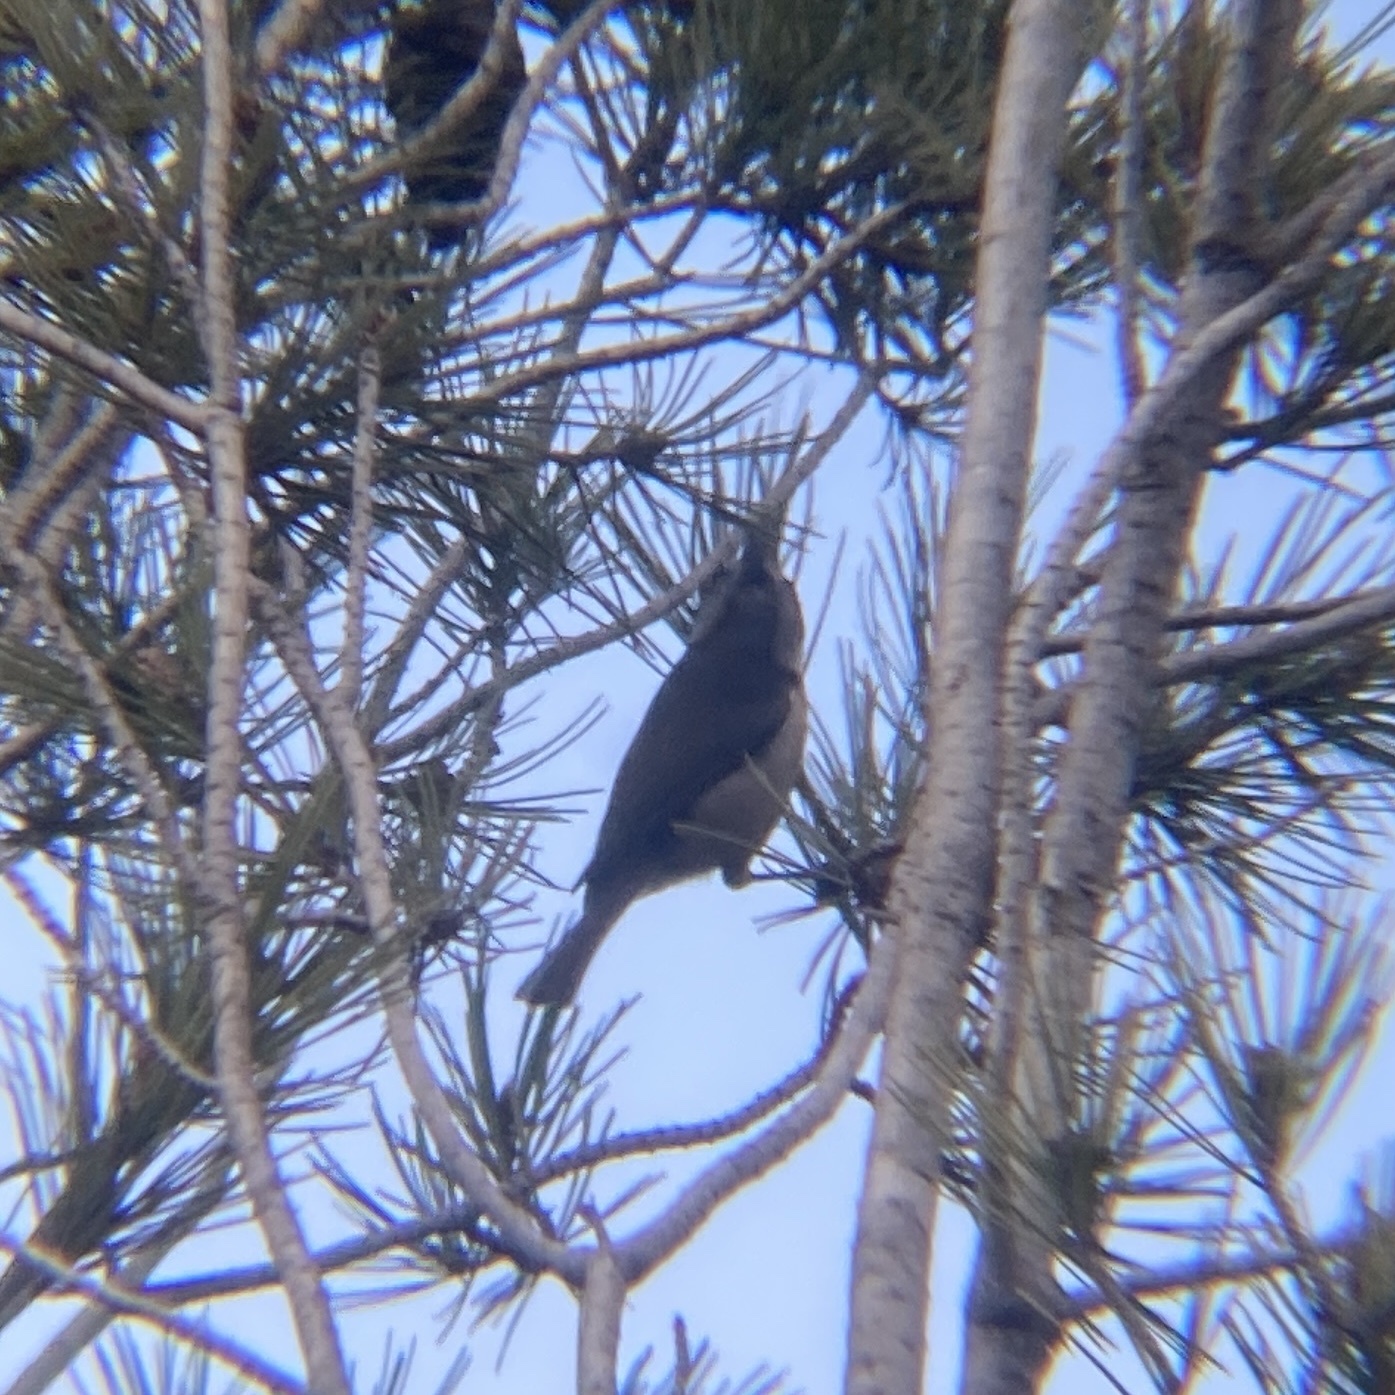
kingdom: Animalia
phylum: Chordata
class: Aves
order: Passeriformes
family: Paridae
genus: Lophophanes
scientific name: Lophophanes cristatus
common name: European crested tit
